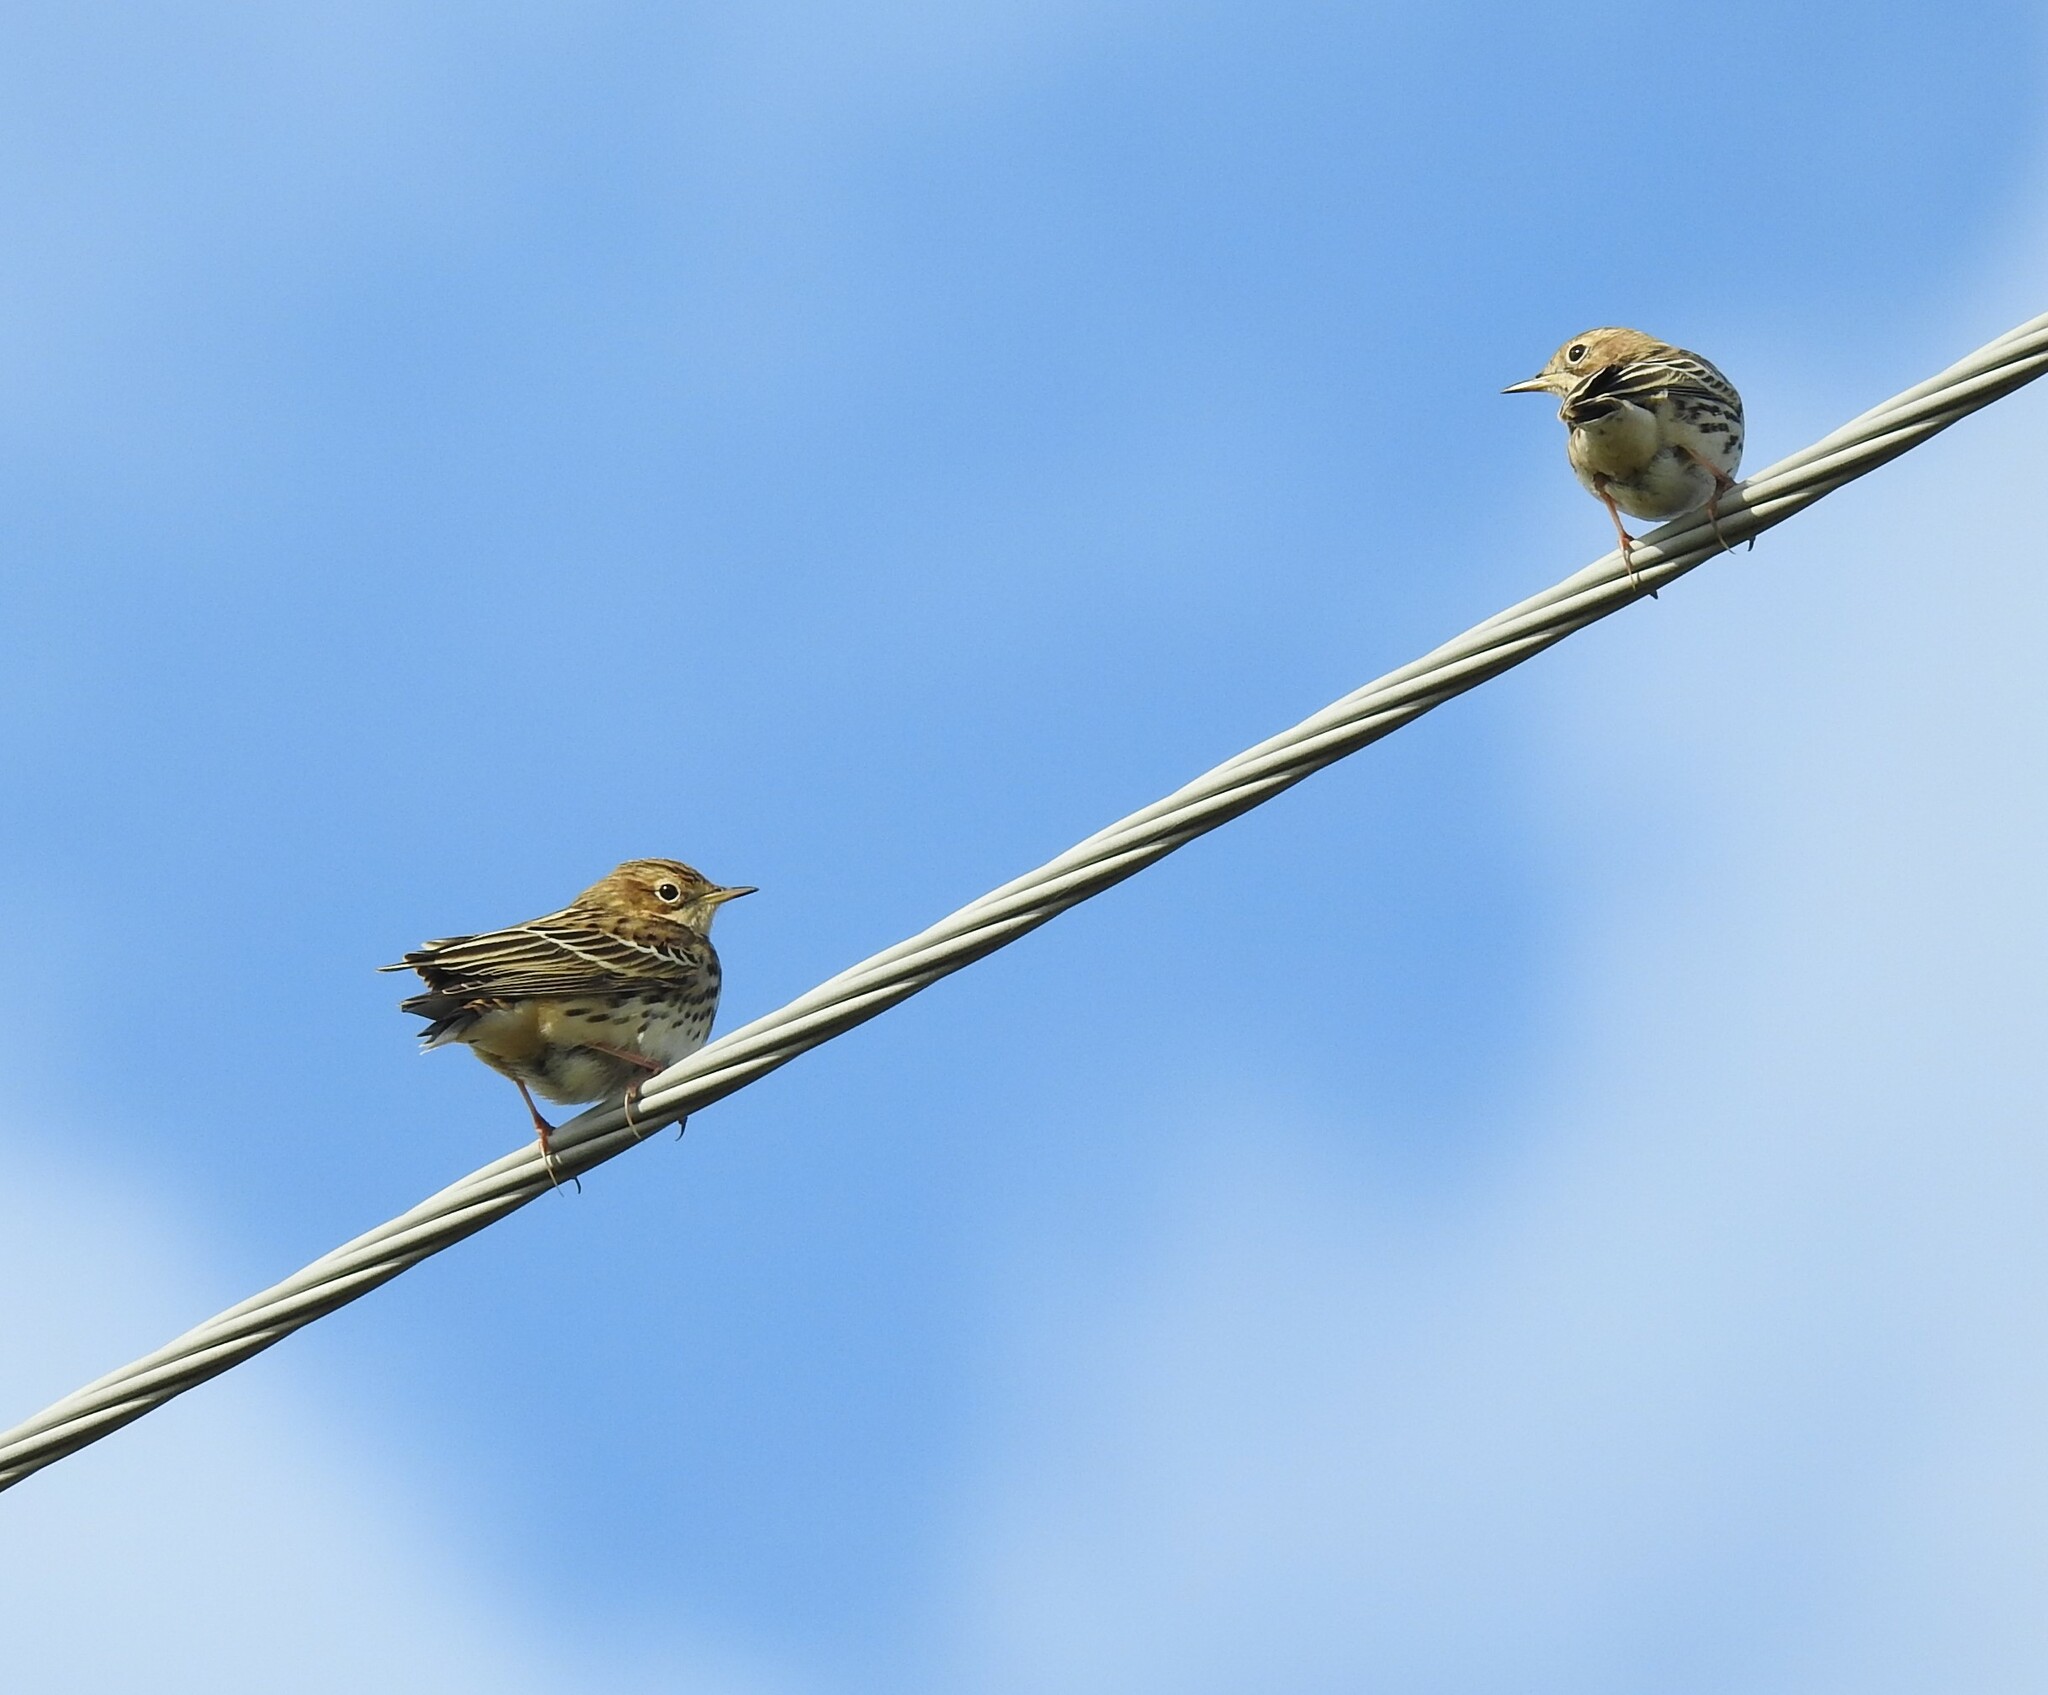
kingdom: Animalia
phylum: Chordata
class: Aves
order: Passeriformes
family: Motacillidae
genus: Anthus
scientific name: Anthus cervinus
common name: Red-throated pipit
